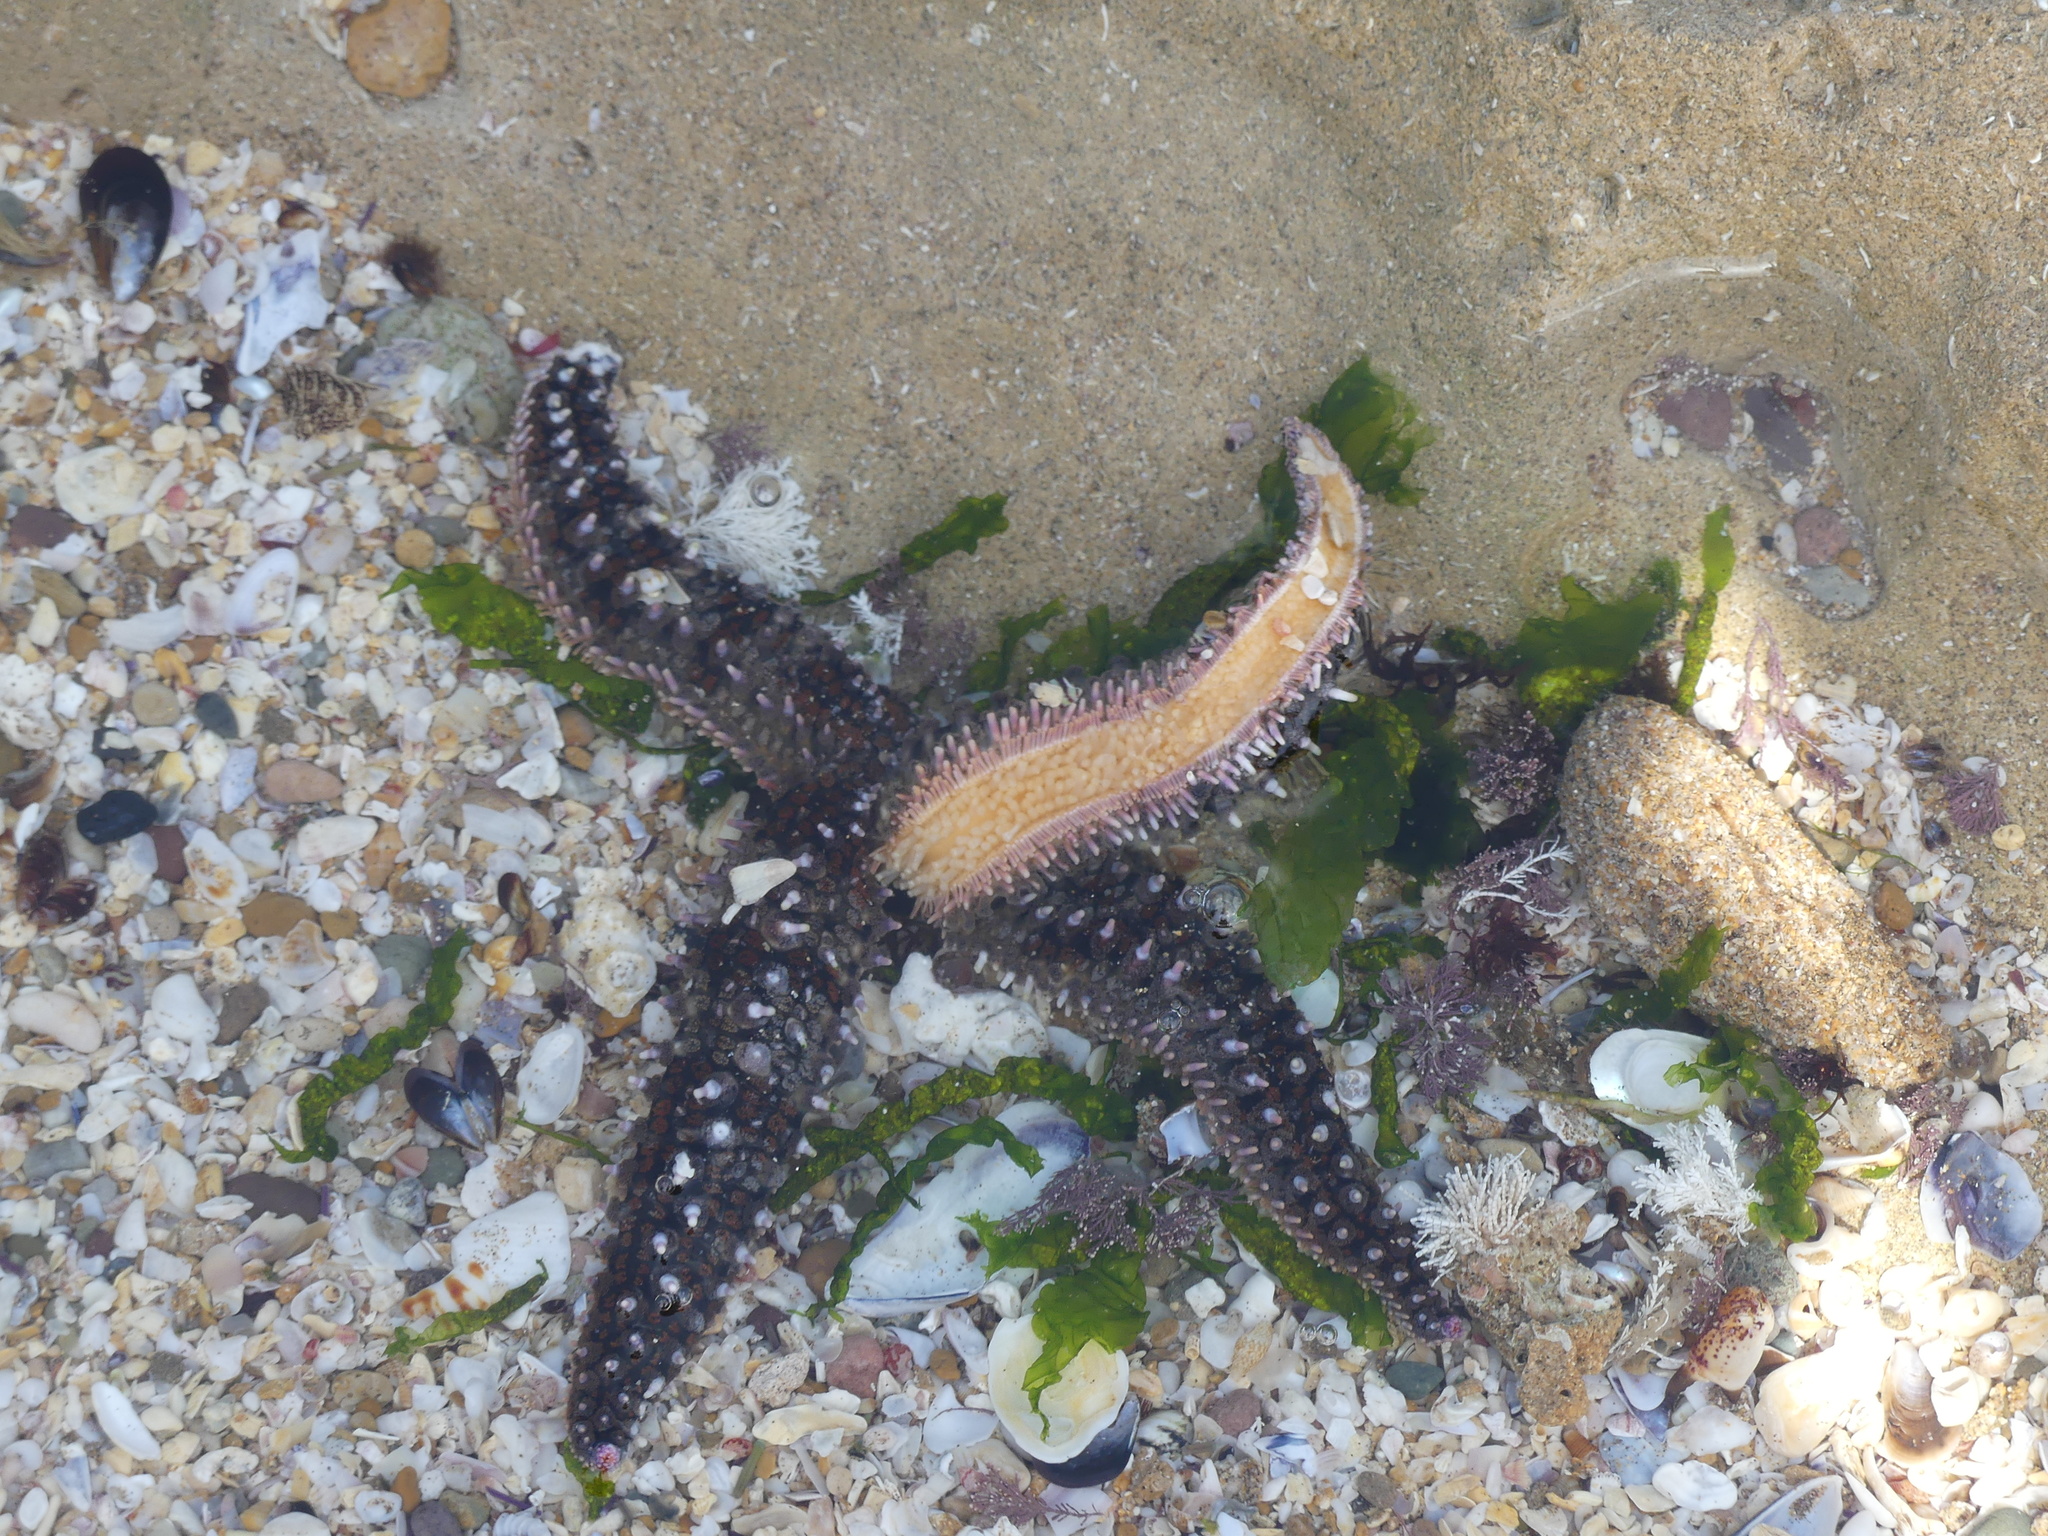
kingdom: Animalia
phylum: Echinodermata
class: Asteroidea
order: Forcipulatida
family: Asteriidae
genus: Marthasterias
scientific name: Marthasterias glacialis
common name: Spiny starfish
